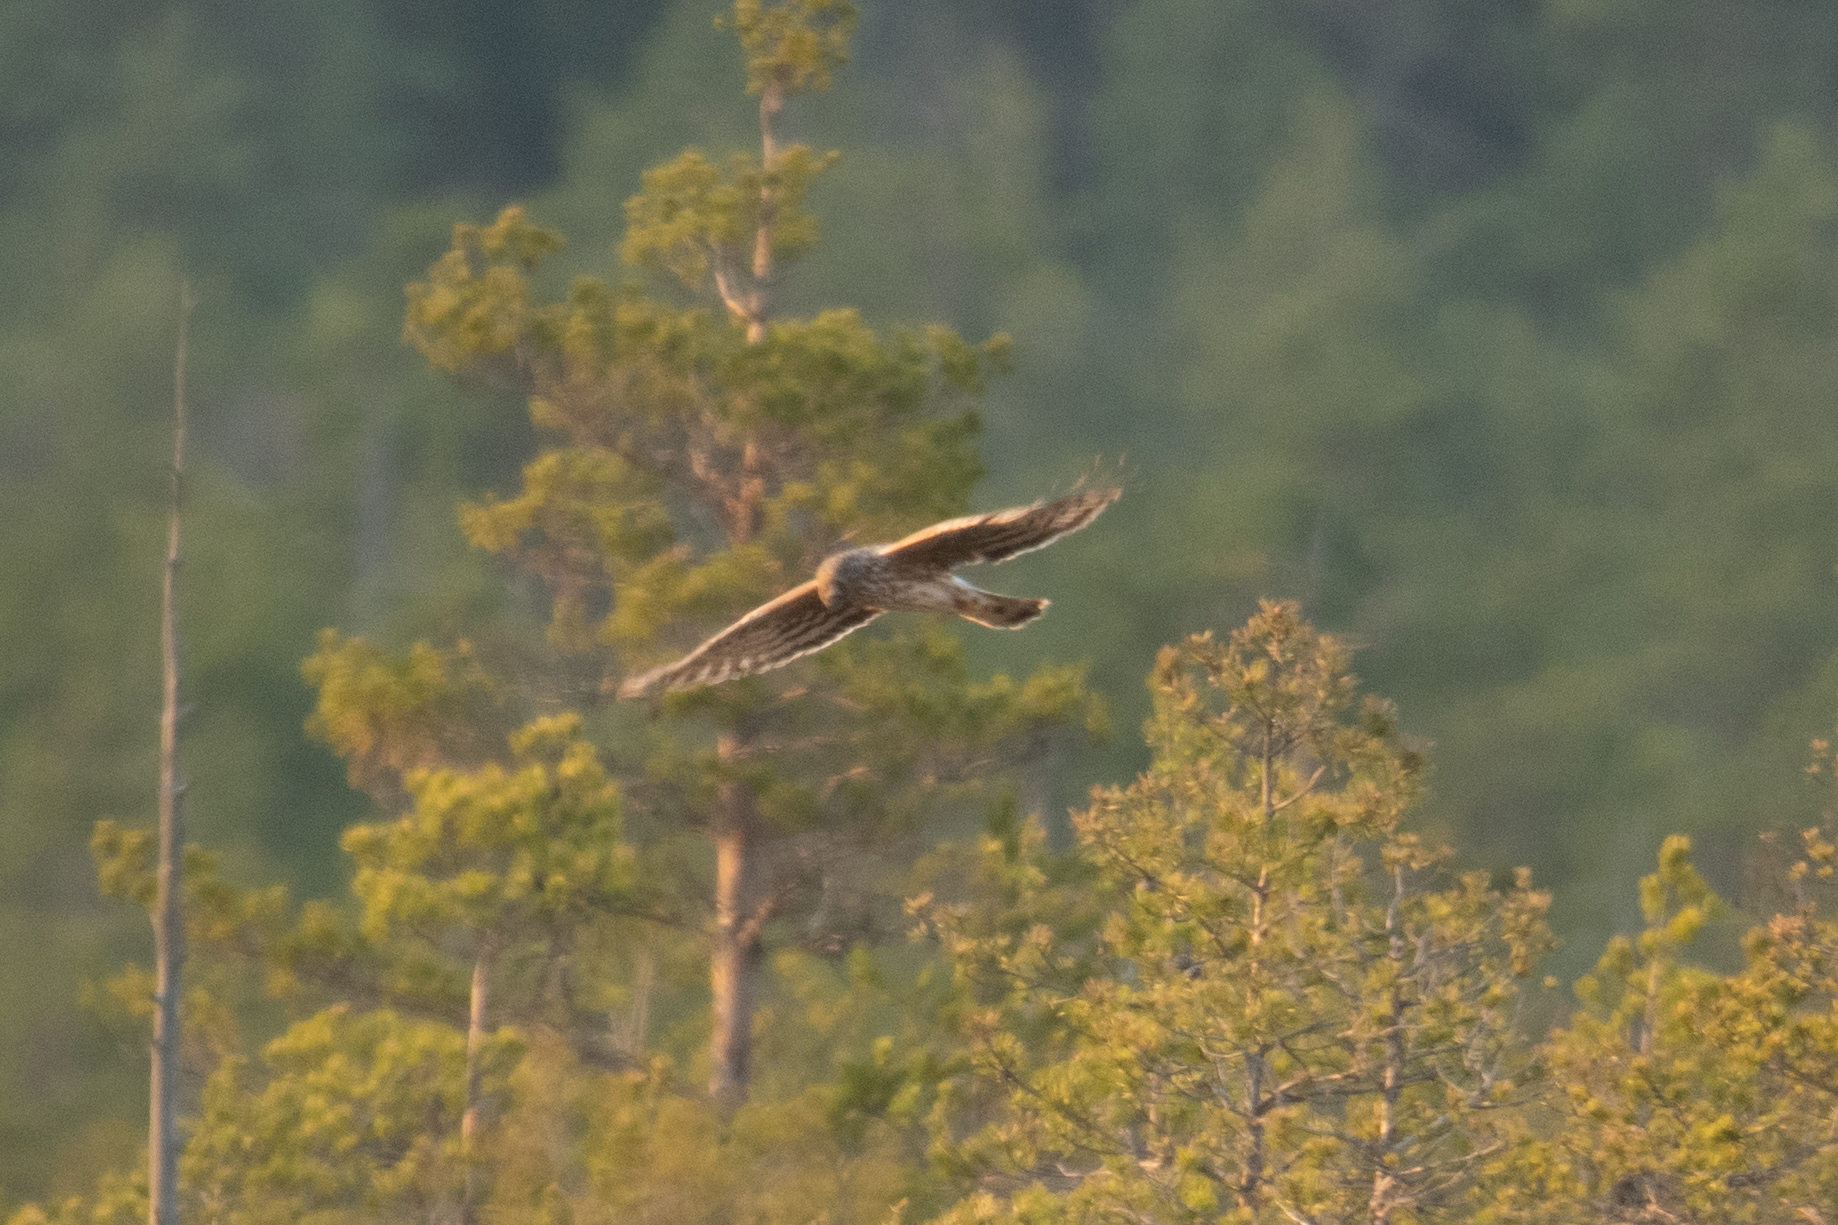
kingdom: Animalia
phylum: Chordata
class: Aves
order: Accipitriformes
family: Accipitridae
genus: Circus
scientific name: Circus cyaneus
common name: Hen harrier
